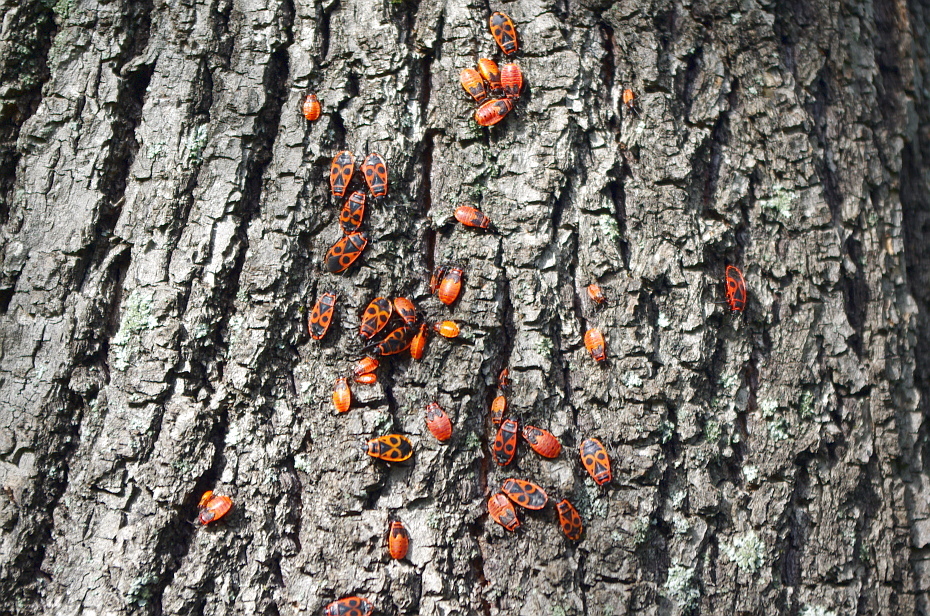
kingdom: Animalia
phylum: Arthropoda
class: Insecta
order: Hemiptera
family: Pyrrhocoridae
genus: Pyrrhocoris
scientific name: Pyrrhocoris apterus
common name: Firebug
